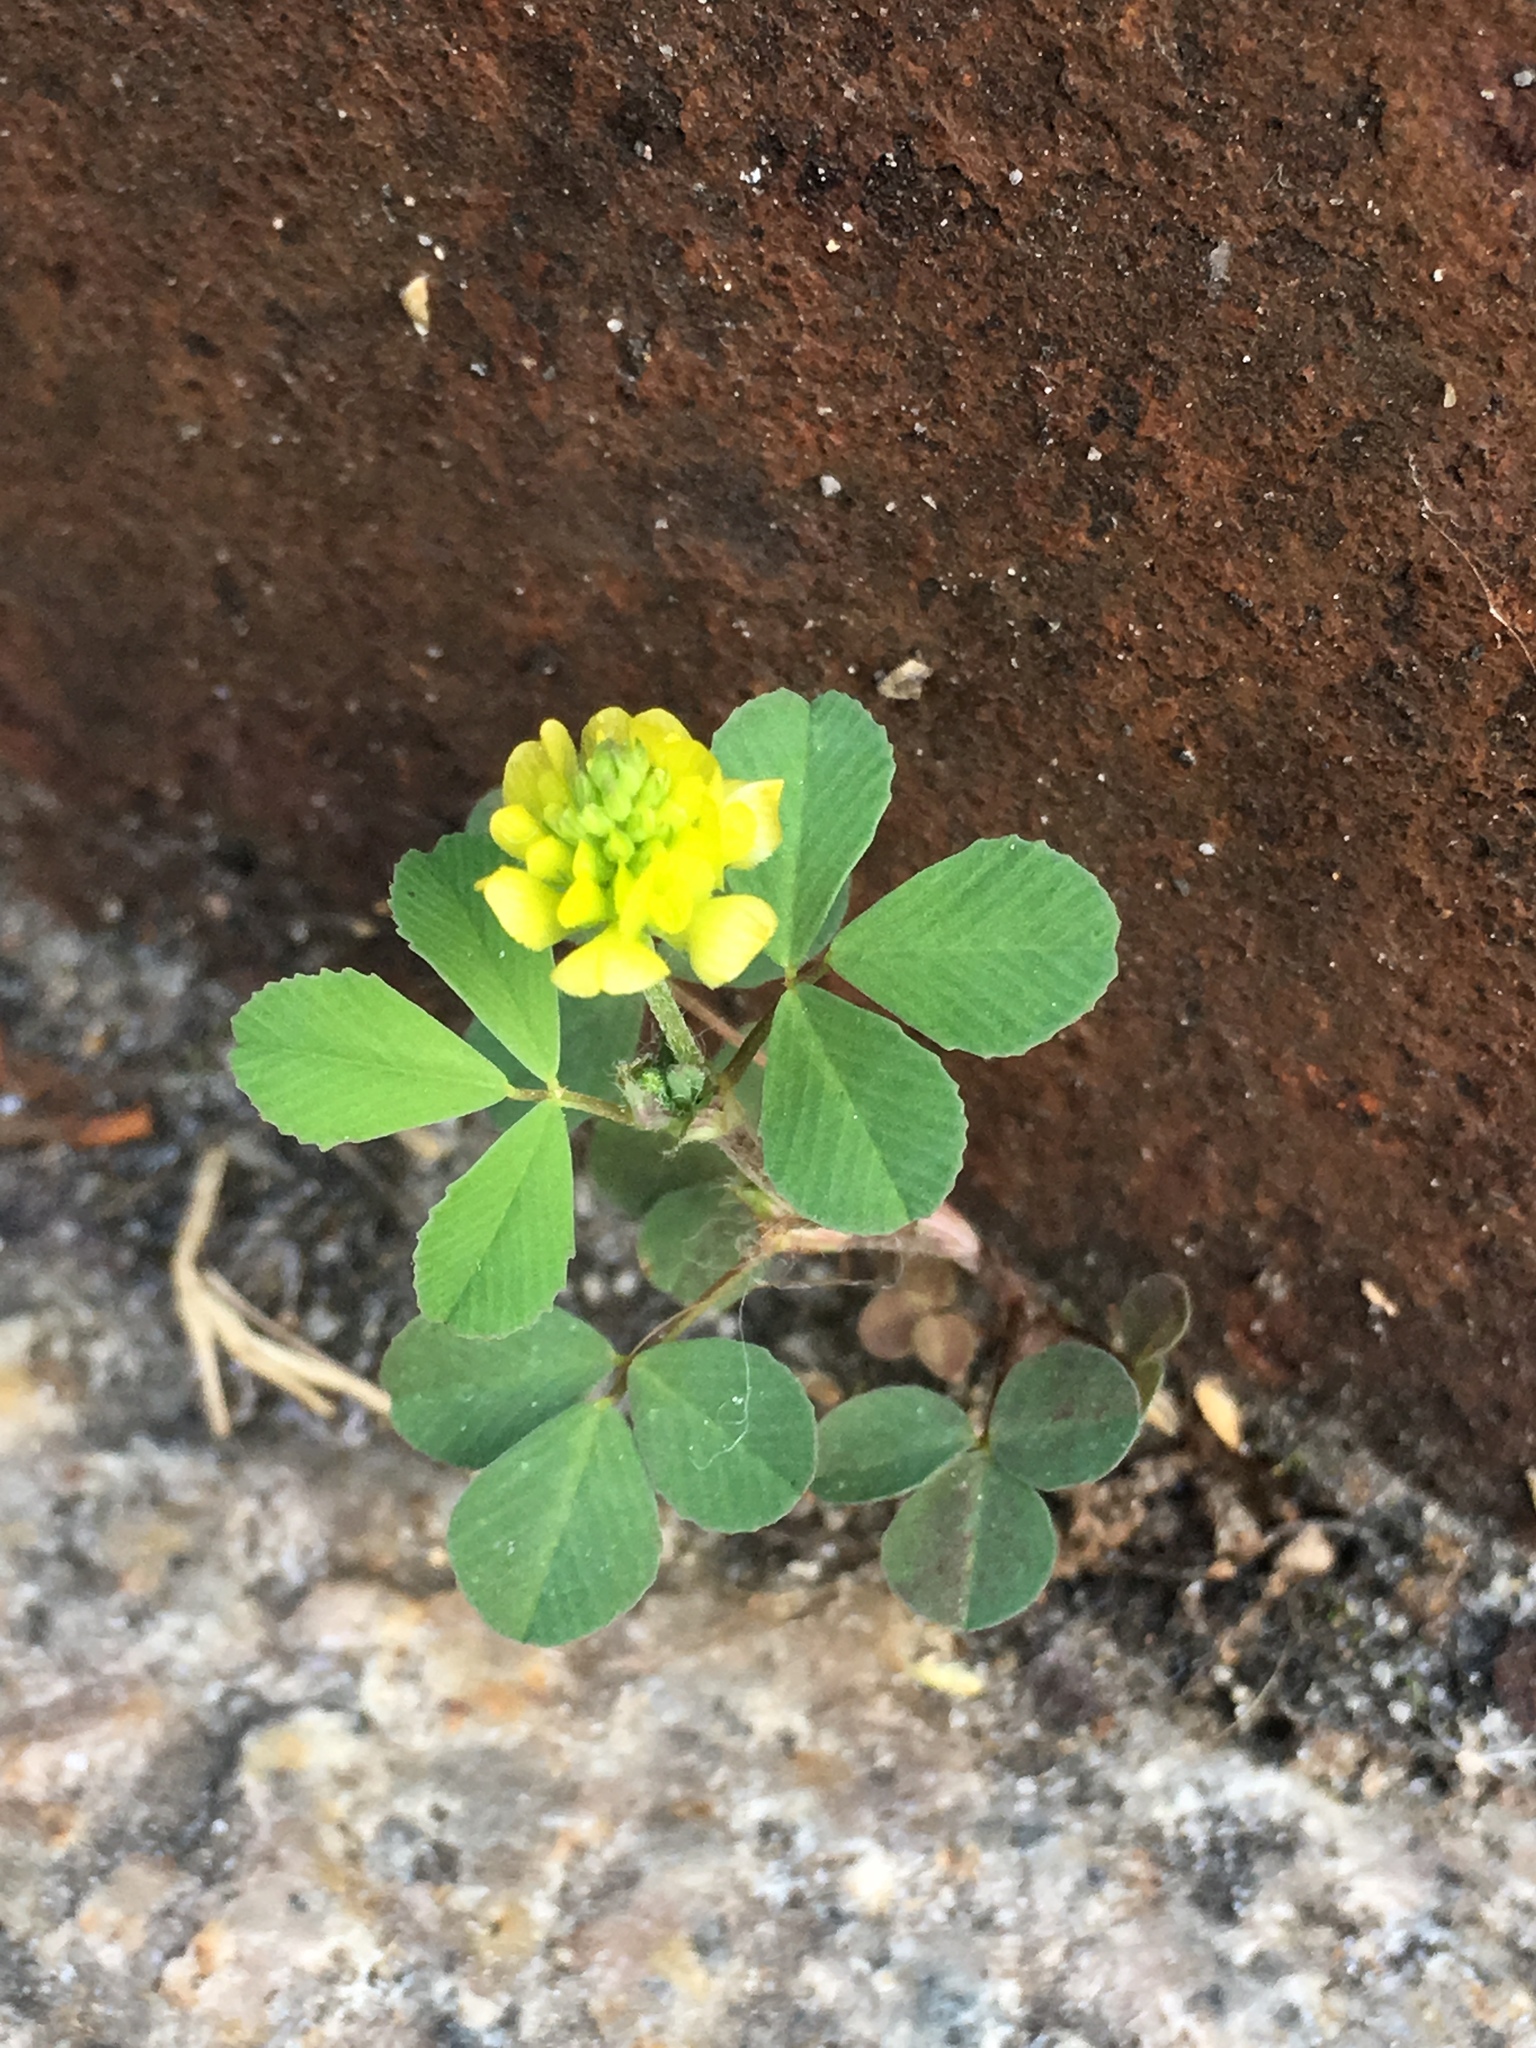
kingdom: Plantae
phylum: Tracheophyta
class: Magnoliopsida
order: Fabales
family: Fabaceae
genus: Trifolium
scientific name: Trifolium campestre
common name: Field clover
